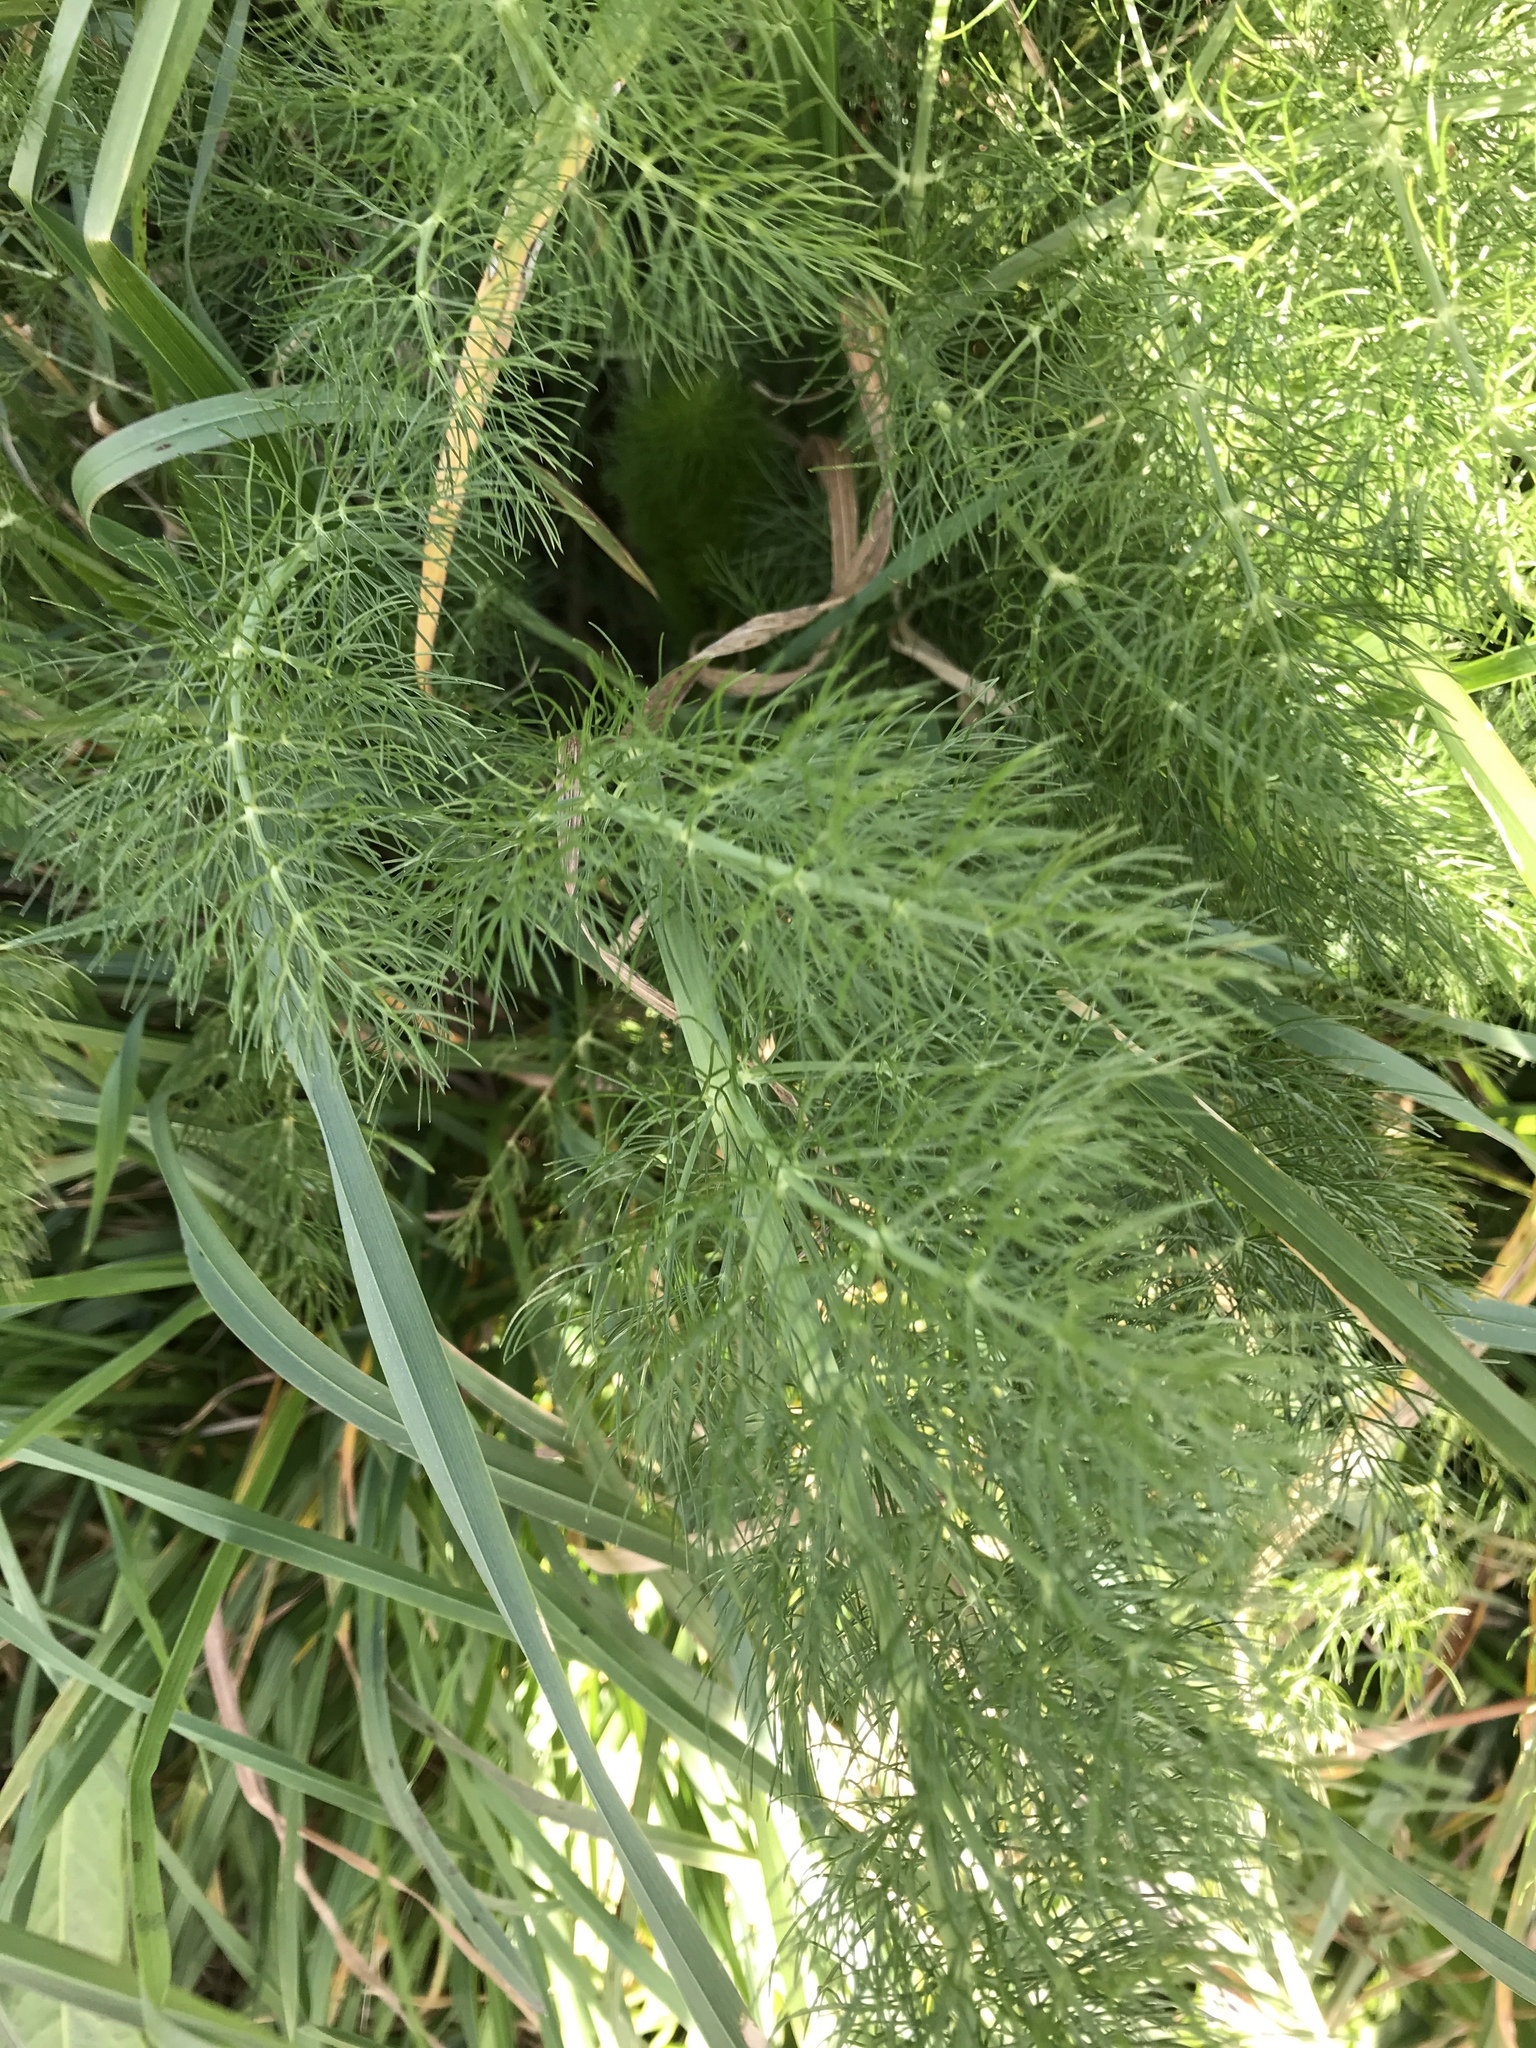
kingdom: Plantae
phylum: Tracheophyta
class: Magnoliopsida
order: Apiales
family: Apiaceae
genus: Foeniculum
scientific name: Foeniculum vulgare
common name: Fennel
